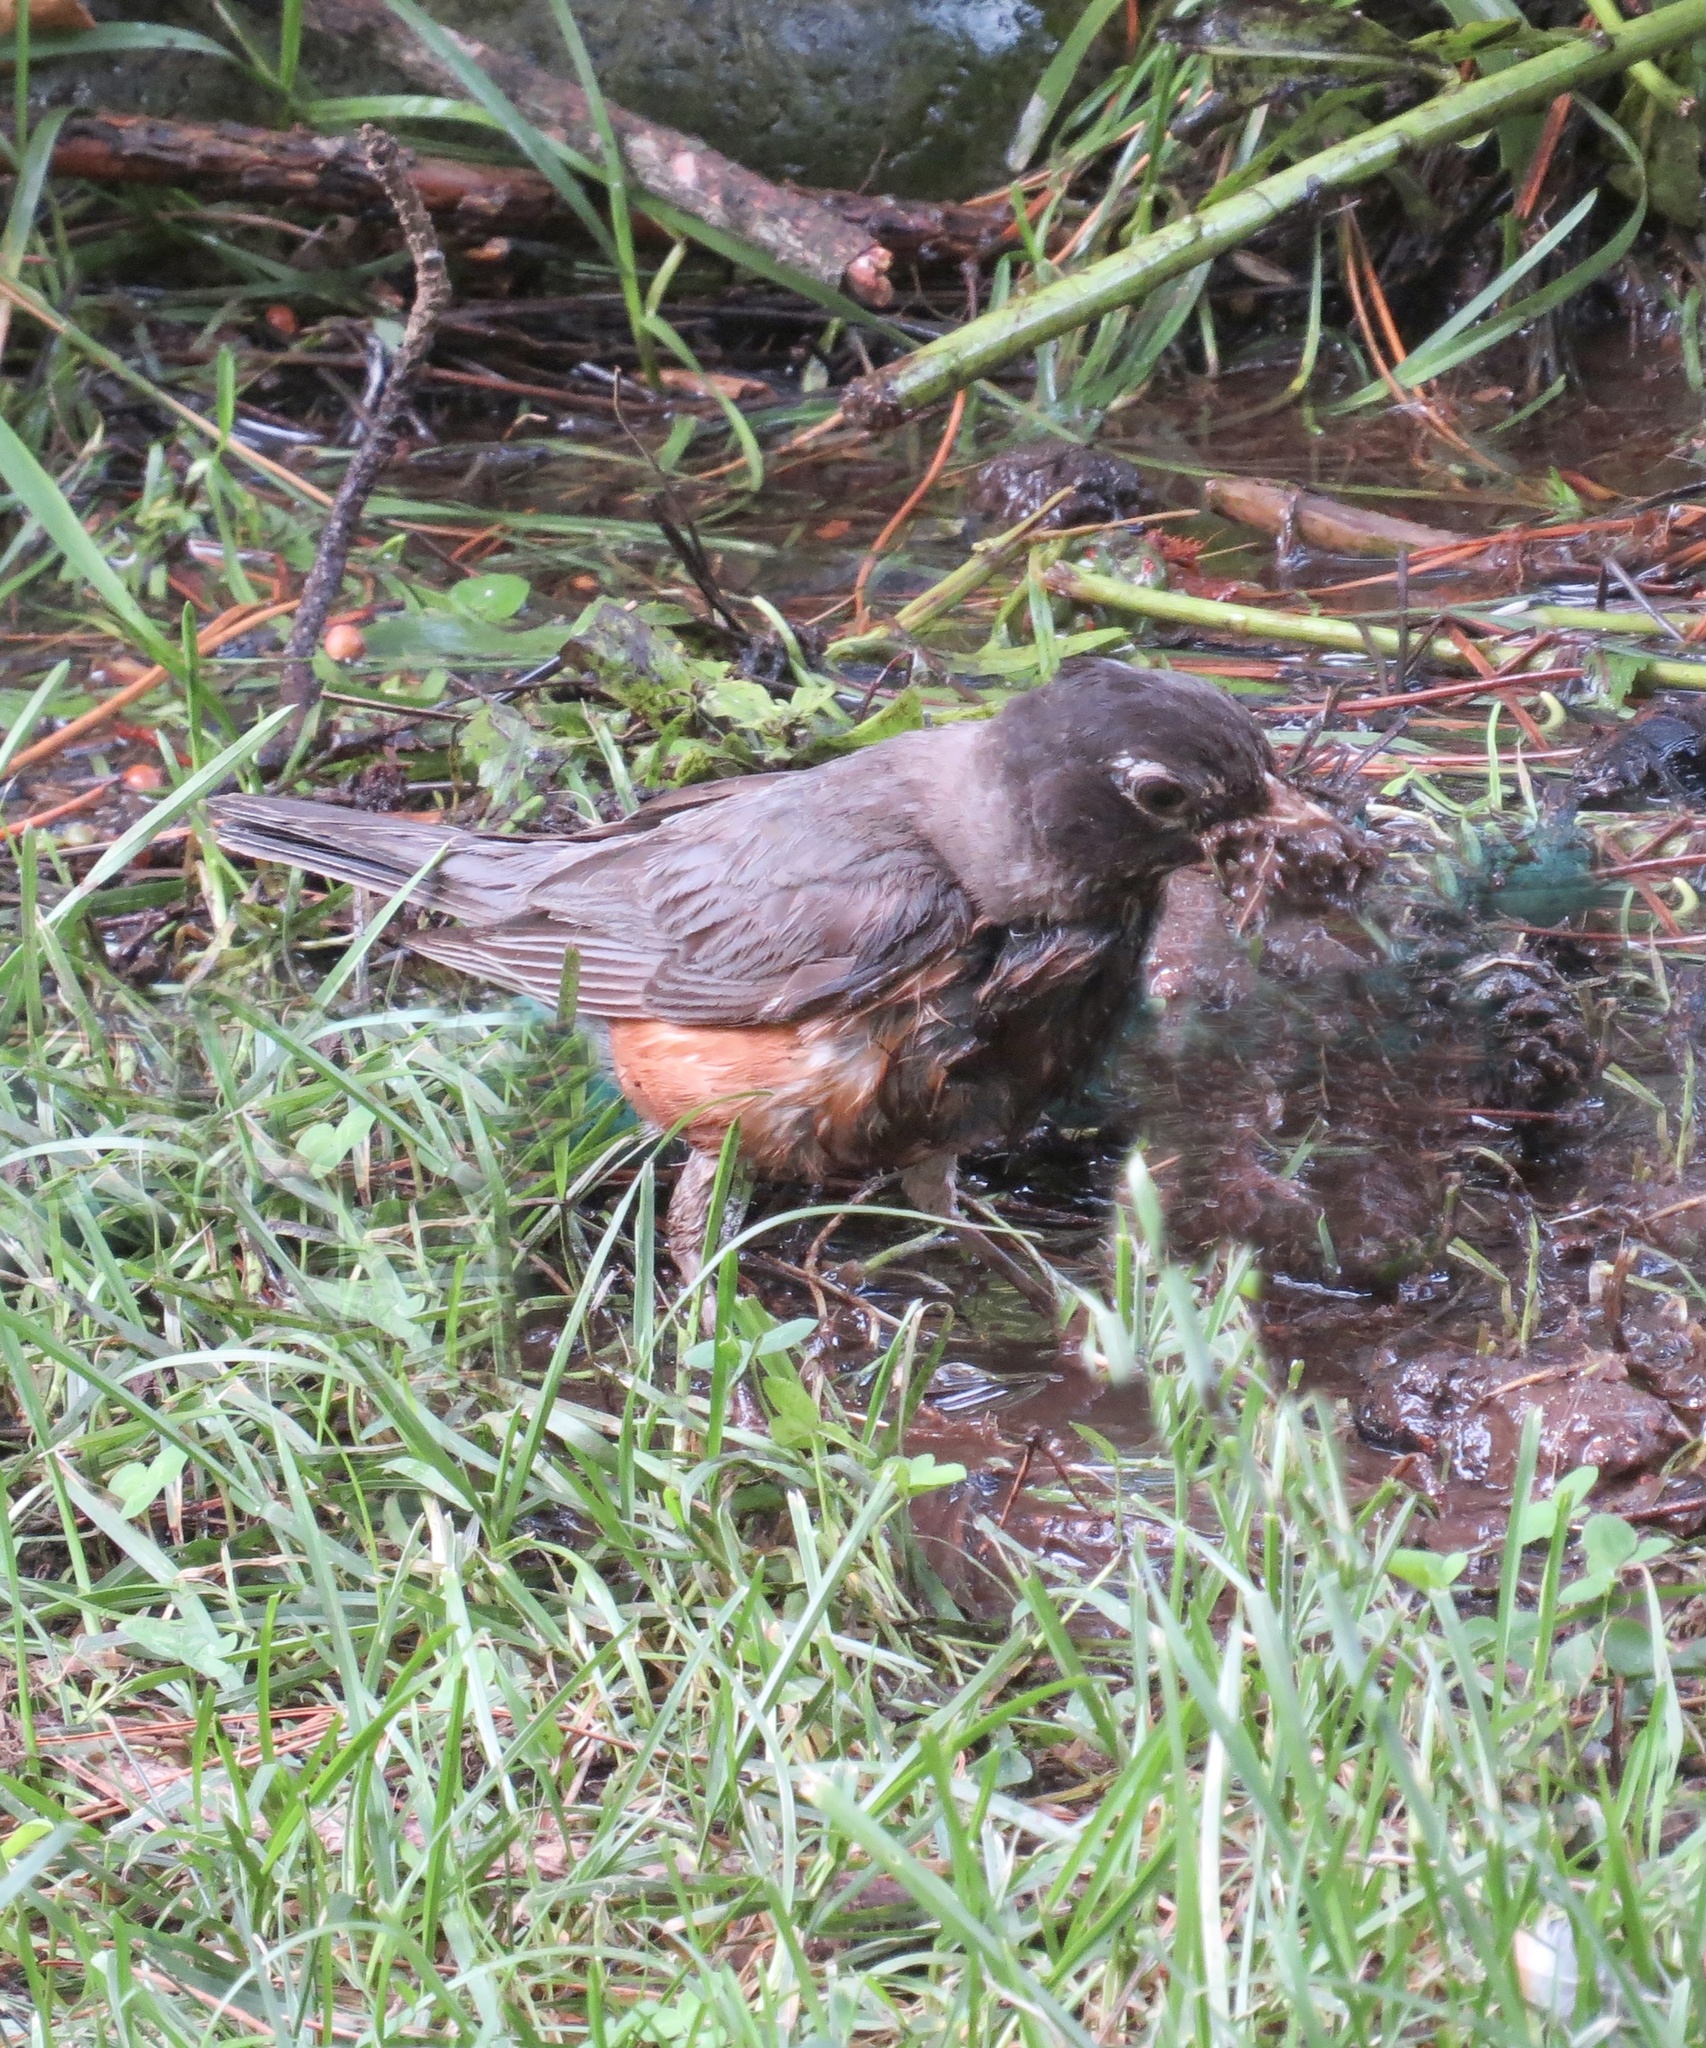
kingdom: Animalia
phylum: Chordata
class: Aves
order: Passeriformes
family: Turdidae
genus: Turdus
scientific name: Turdus migratorius
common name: American robin
